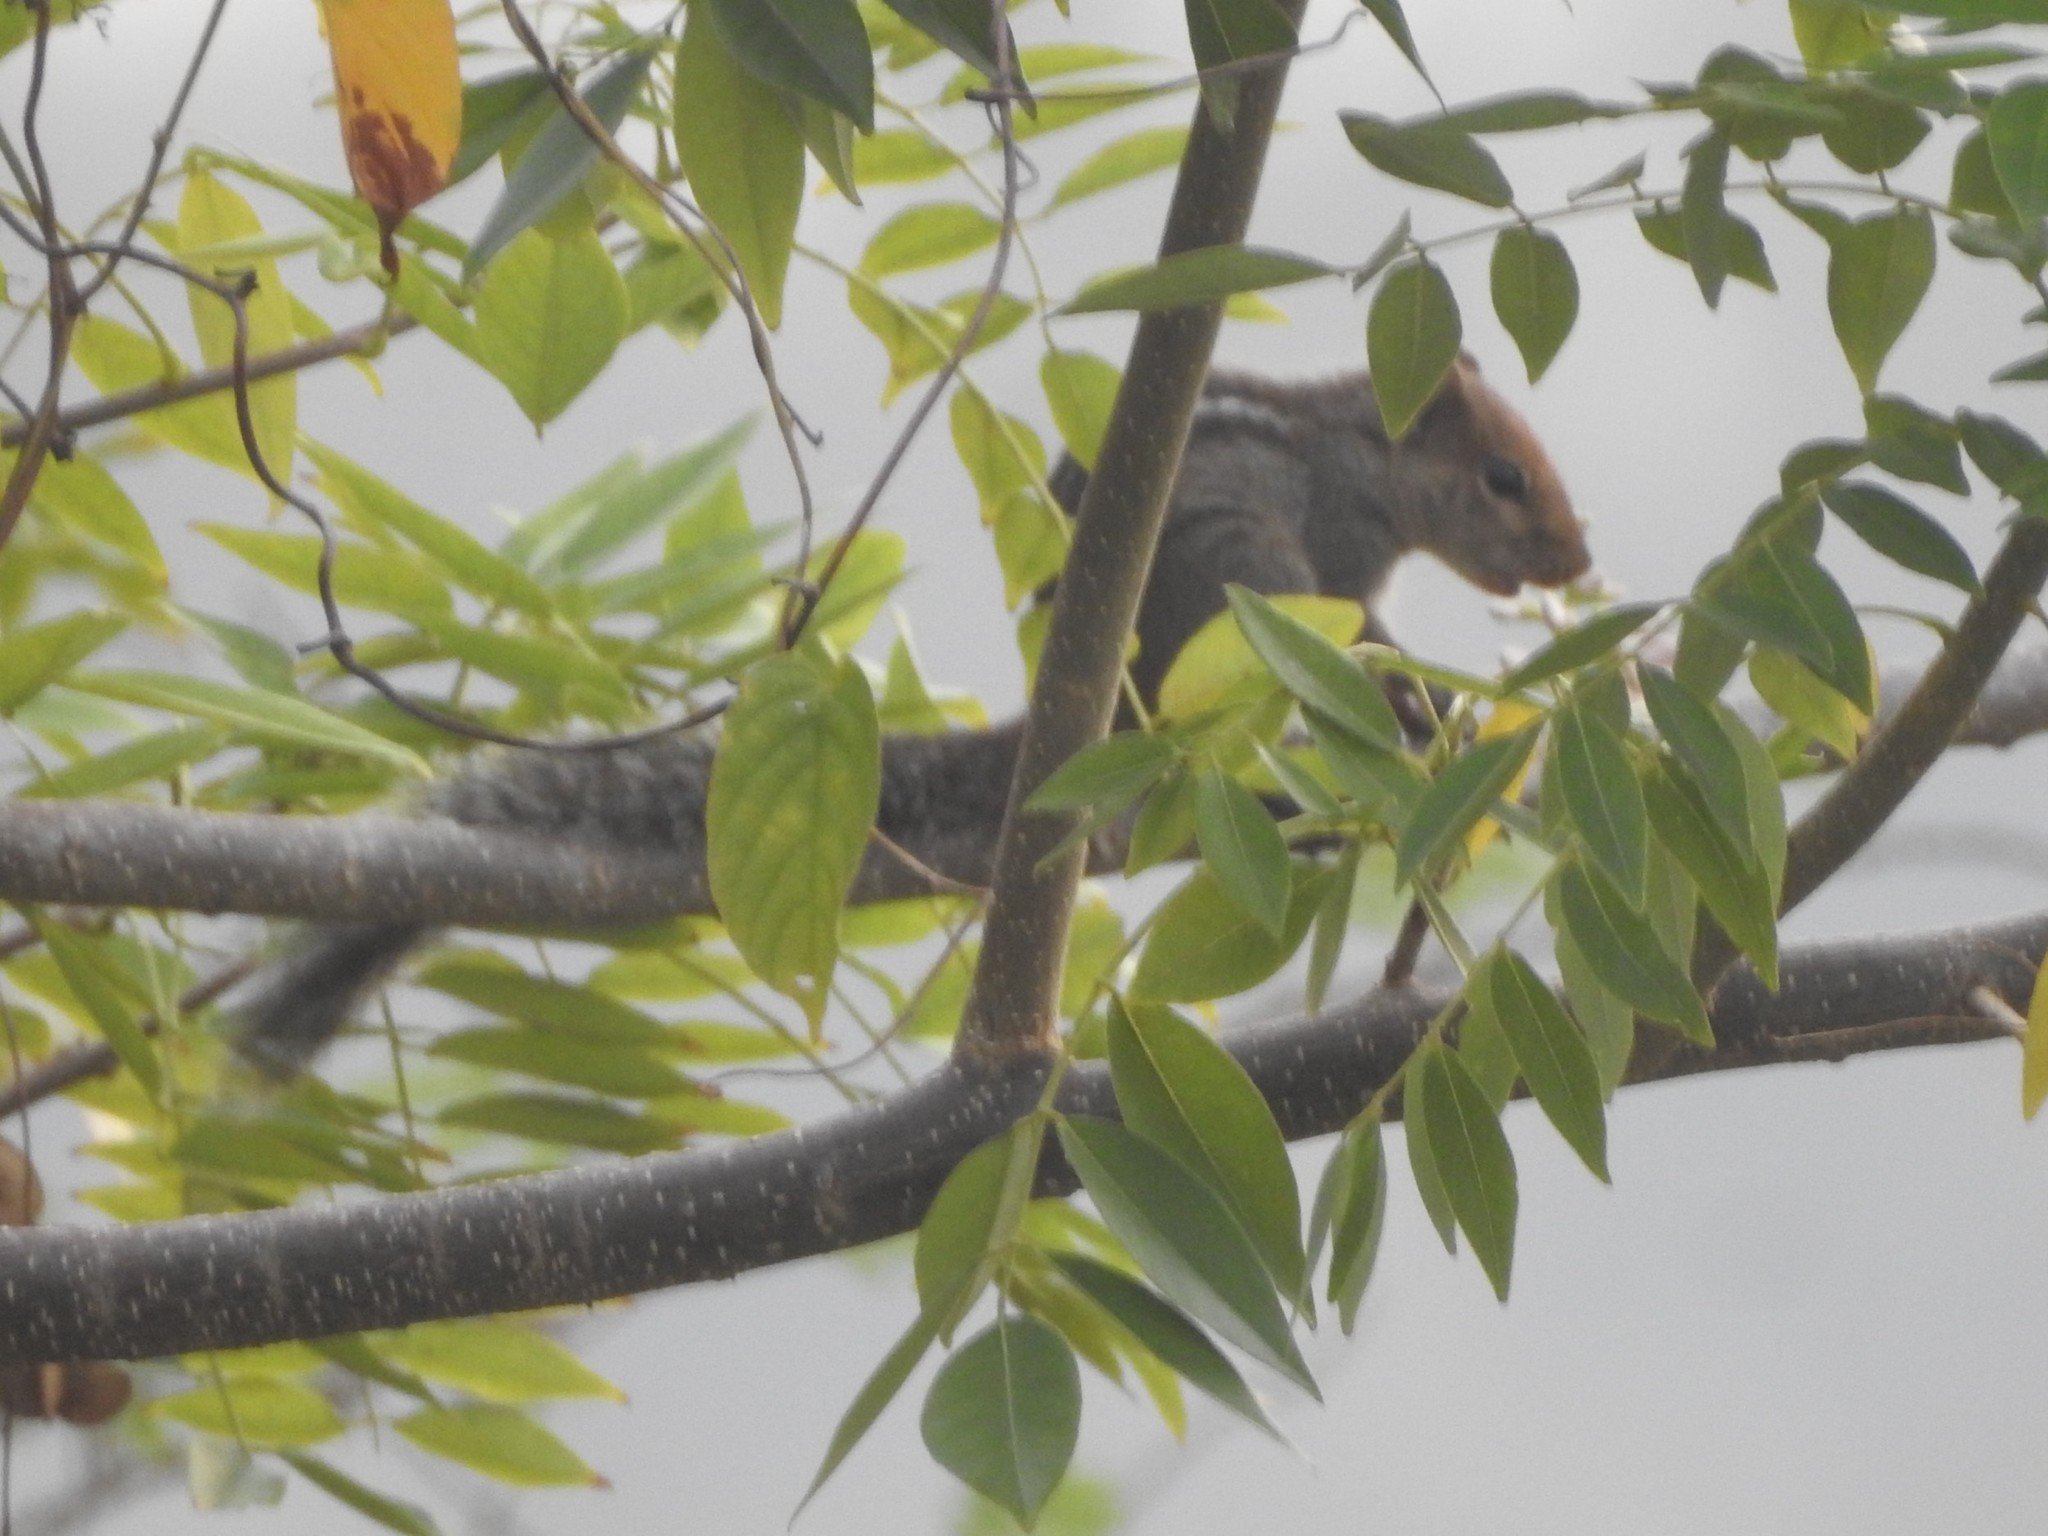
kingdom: Animalia
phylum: Chordata
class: Mammalia
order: Rodentia
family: Sciuridae
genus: Funambulus
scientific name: Funambulus tristriatus
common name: Jungle palm squirrel
